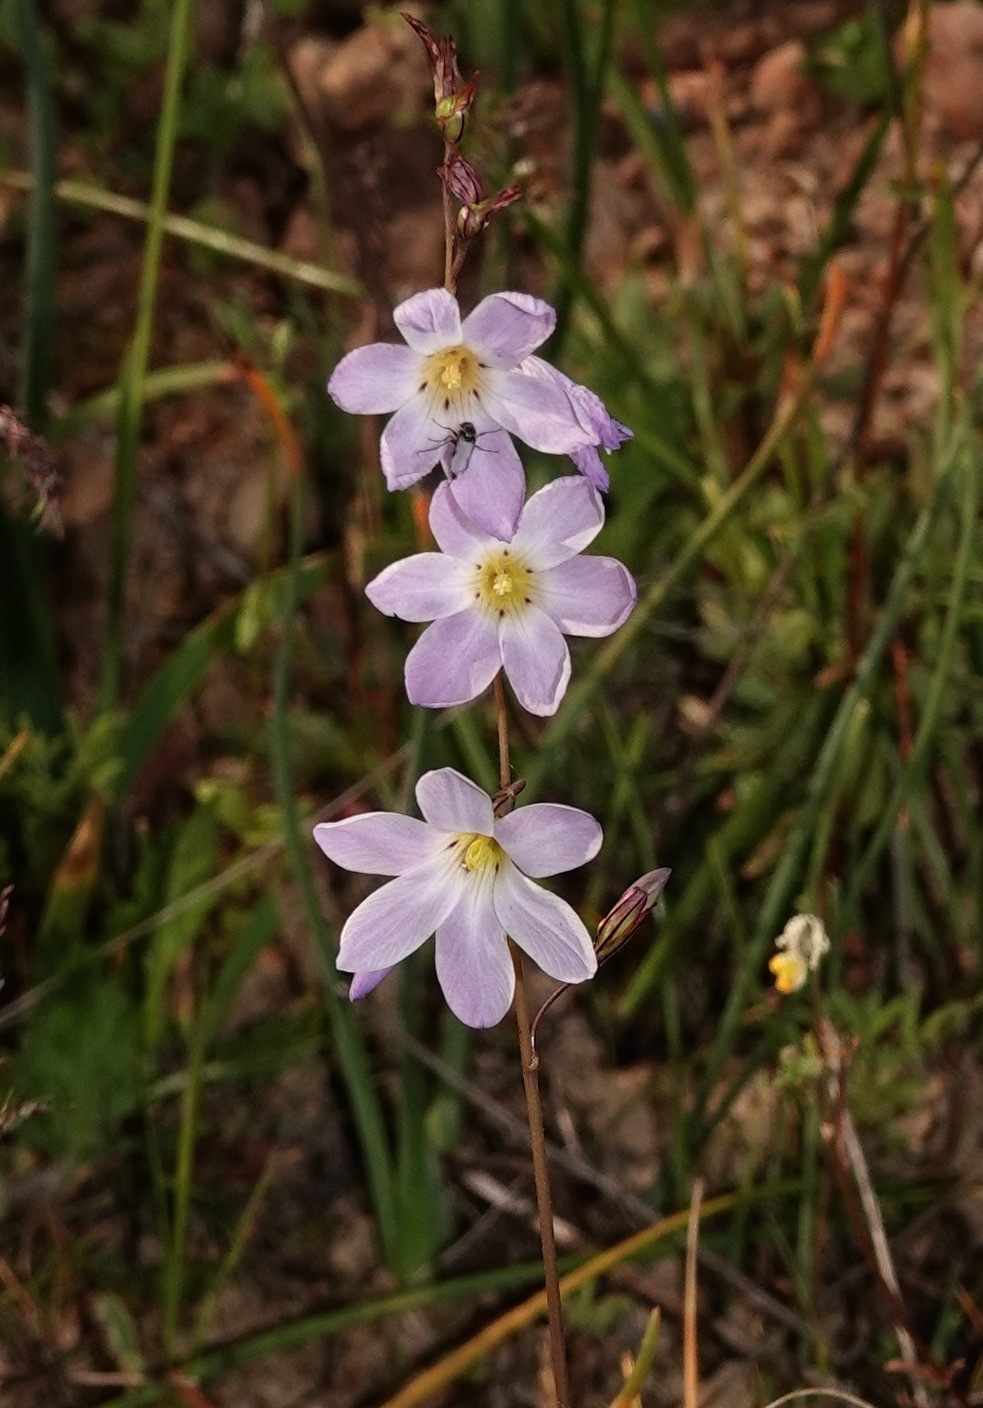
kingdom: Plantae
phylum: Tracheophyta
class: Liliopsida
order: Asparagales
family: Iridaceae
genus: Ixia
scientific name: Ixia rapunculoides
